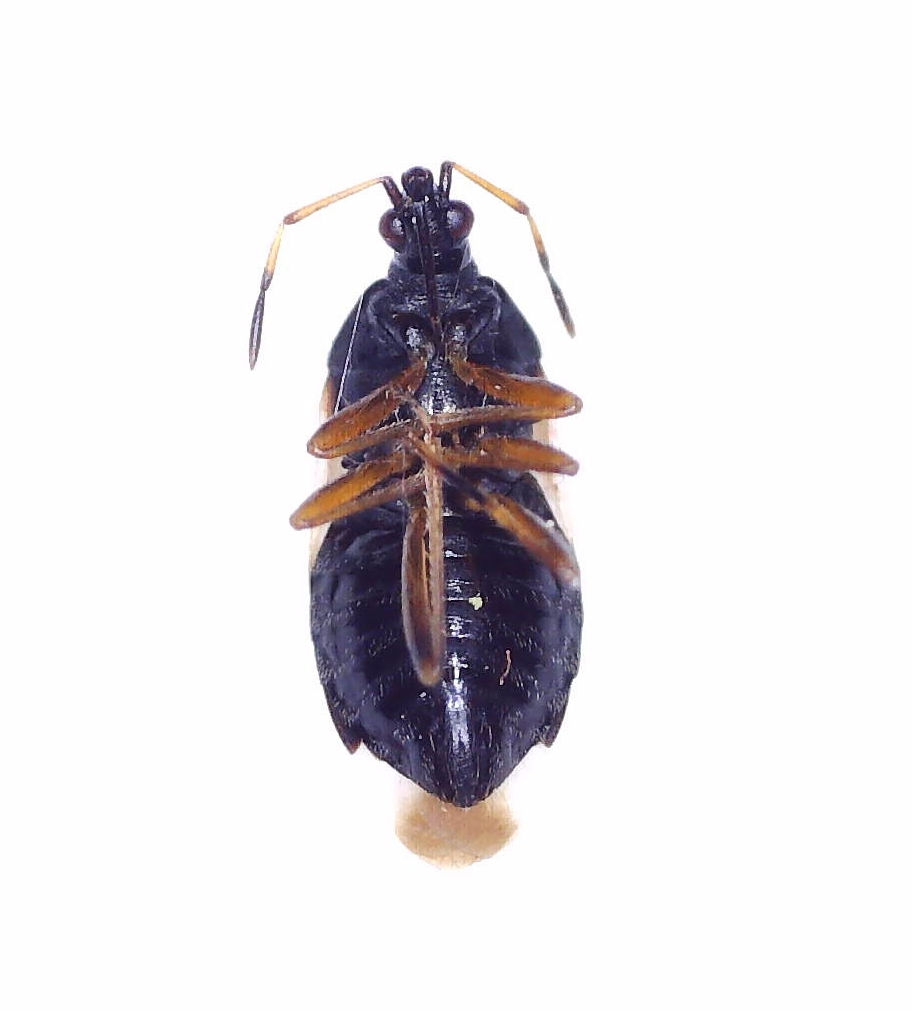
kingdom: Animalia
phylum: Arthropoda
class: Insecta
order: Hemiptera
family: Anthocoridae
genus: Anthocoris
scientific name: Anthocoris nemorum
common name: Minute pirate bug
